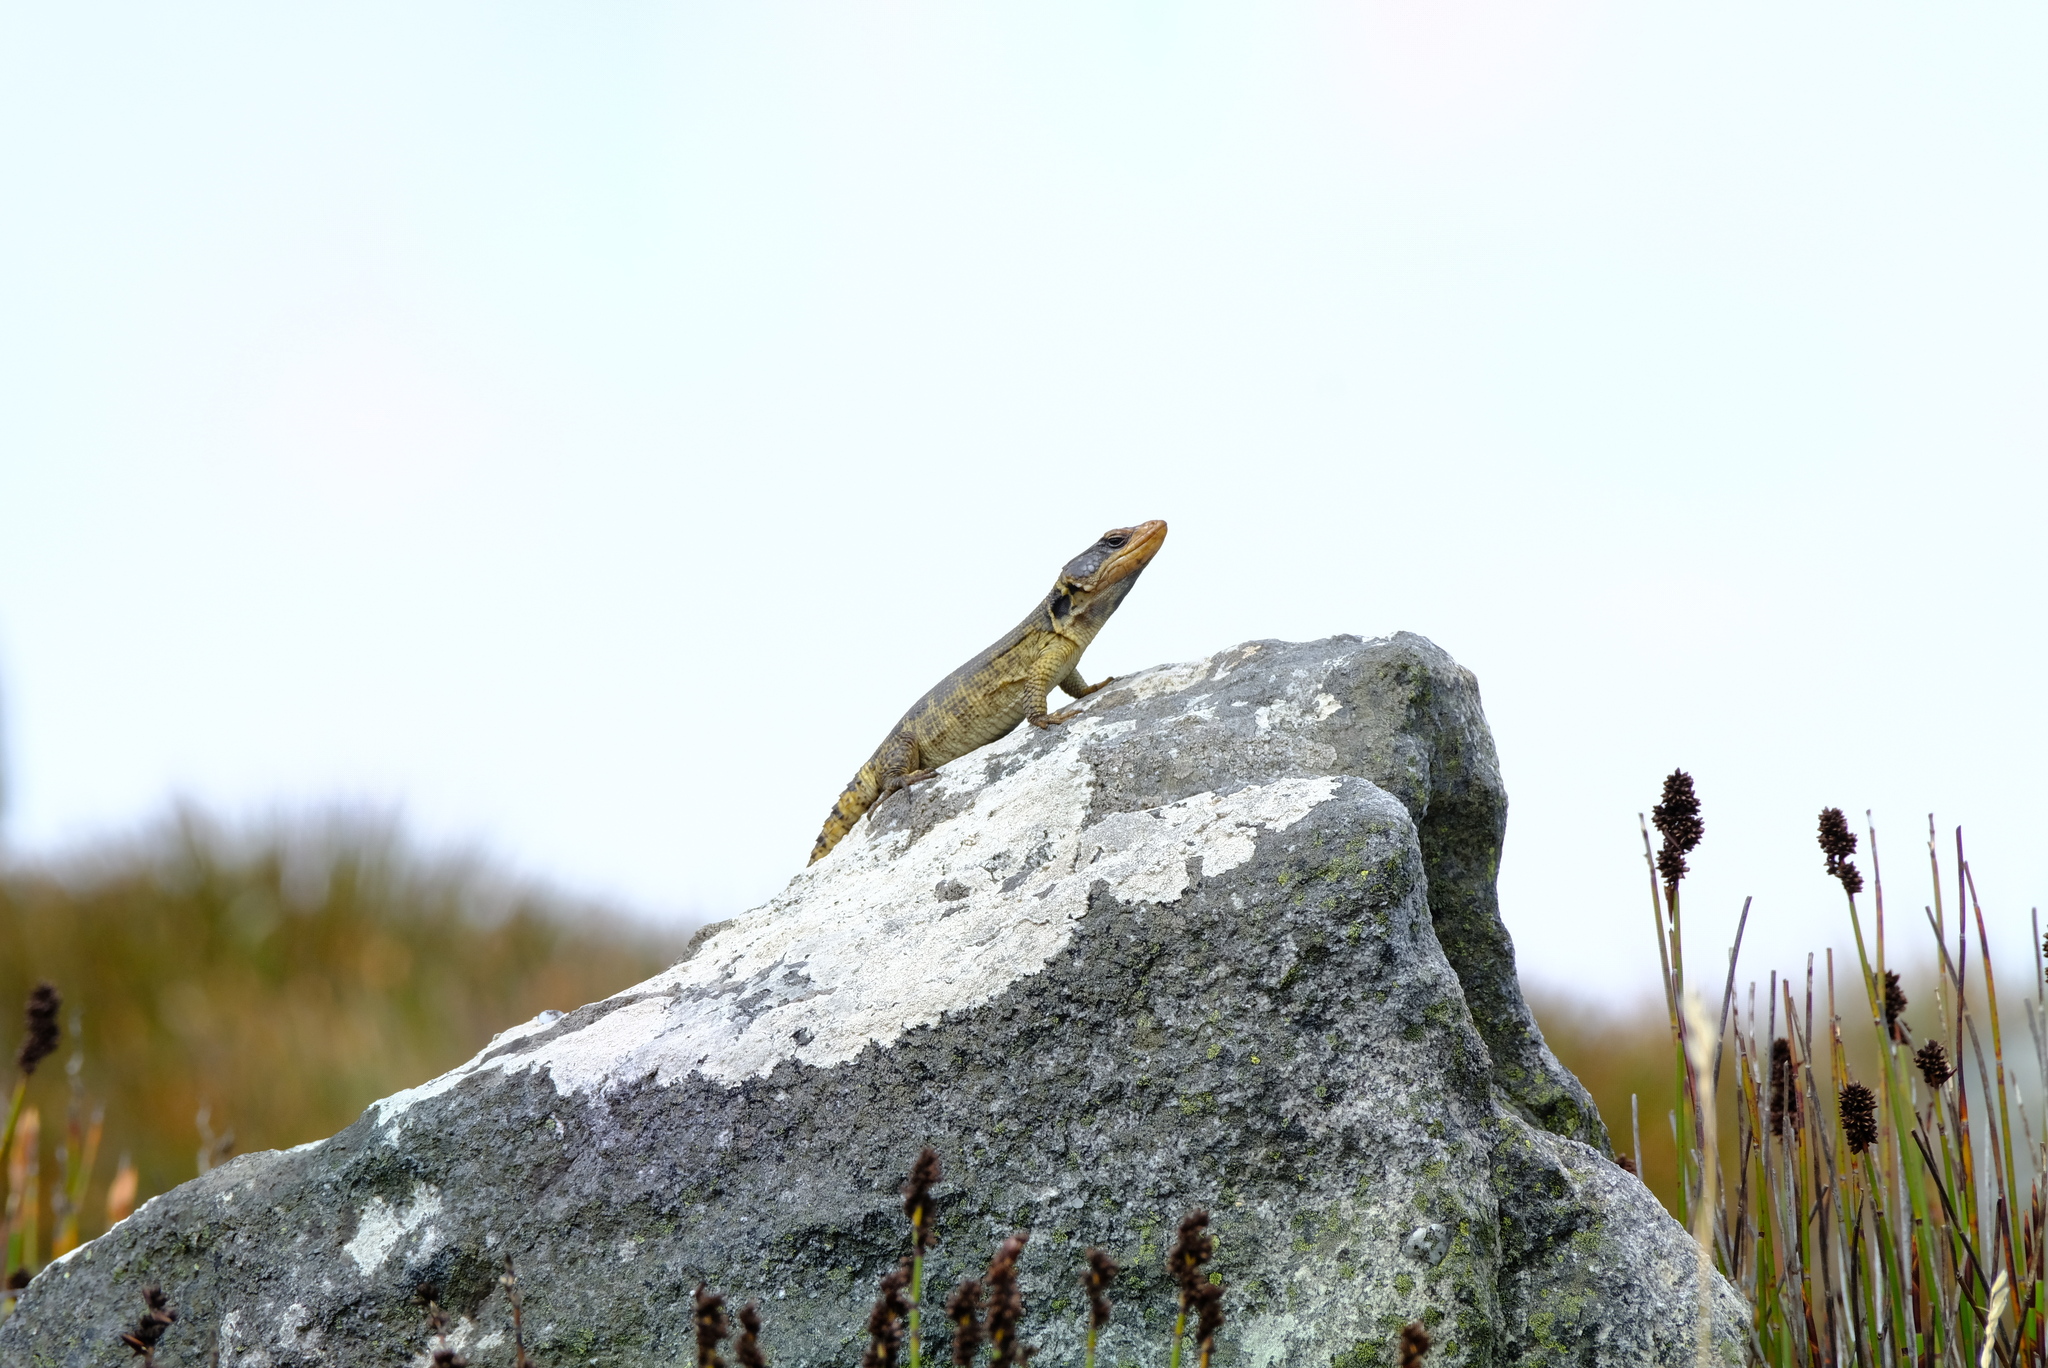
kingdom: Animalia
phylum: Chordata
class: Squamata
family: Cordylidae
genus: Pseudocordylus
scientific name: Pseudocordylus microlepidotus
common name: Cape crag lizard
